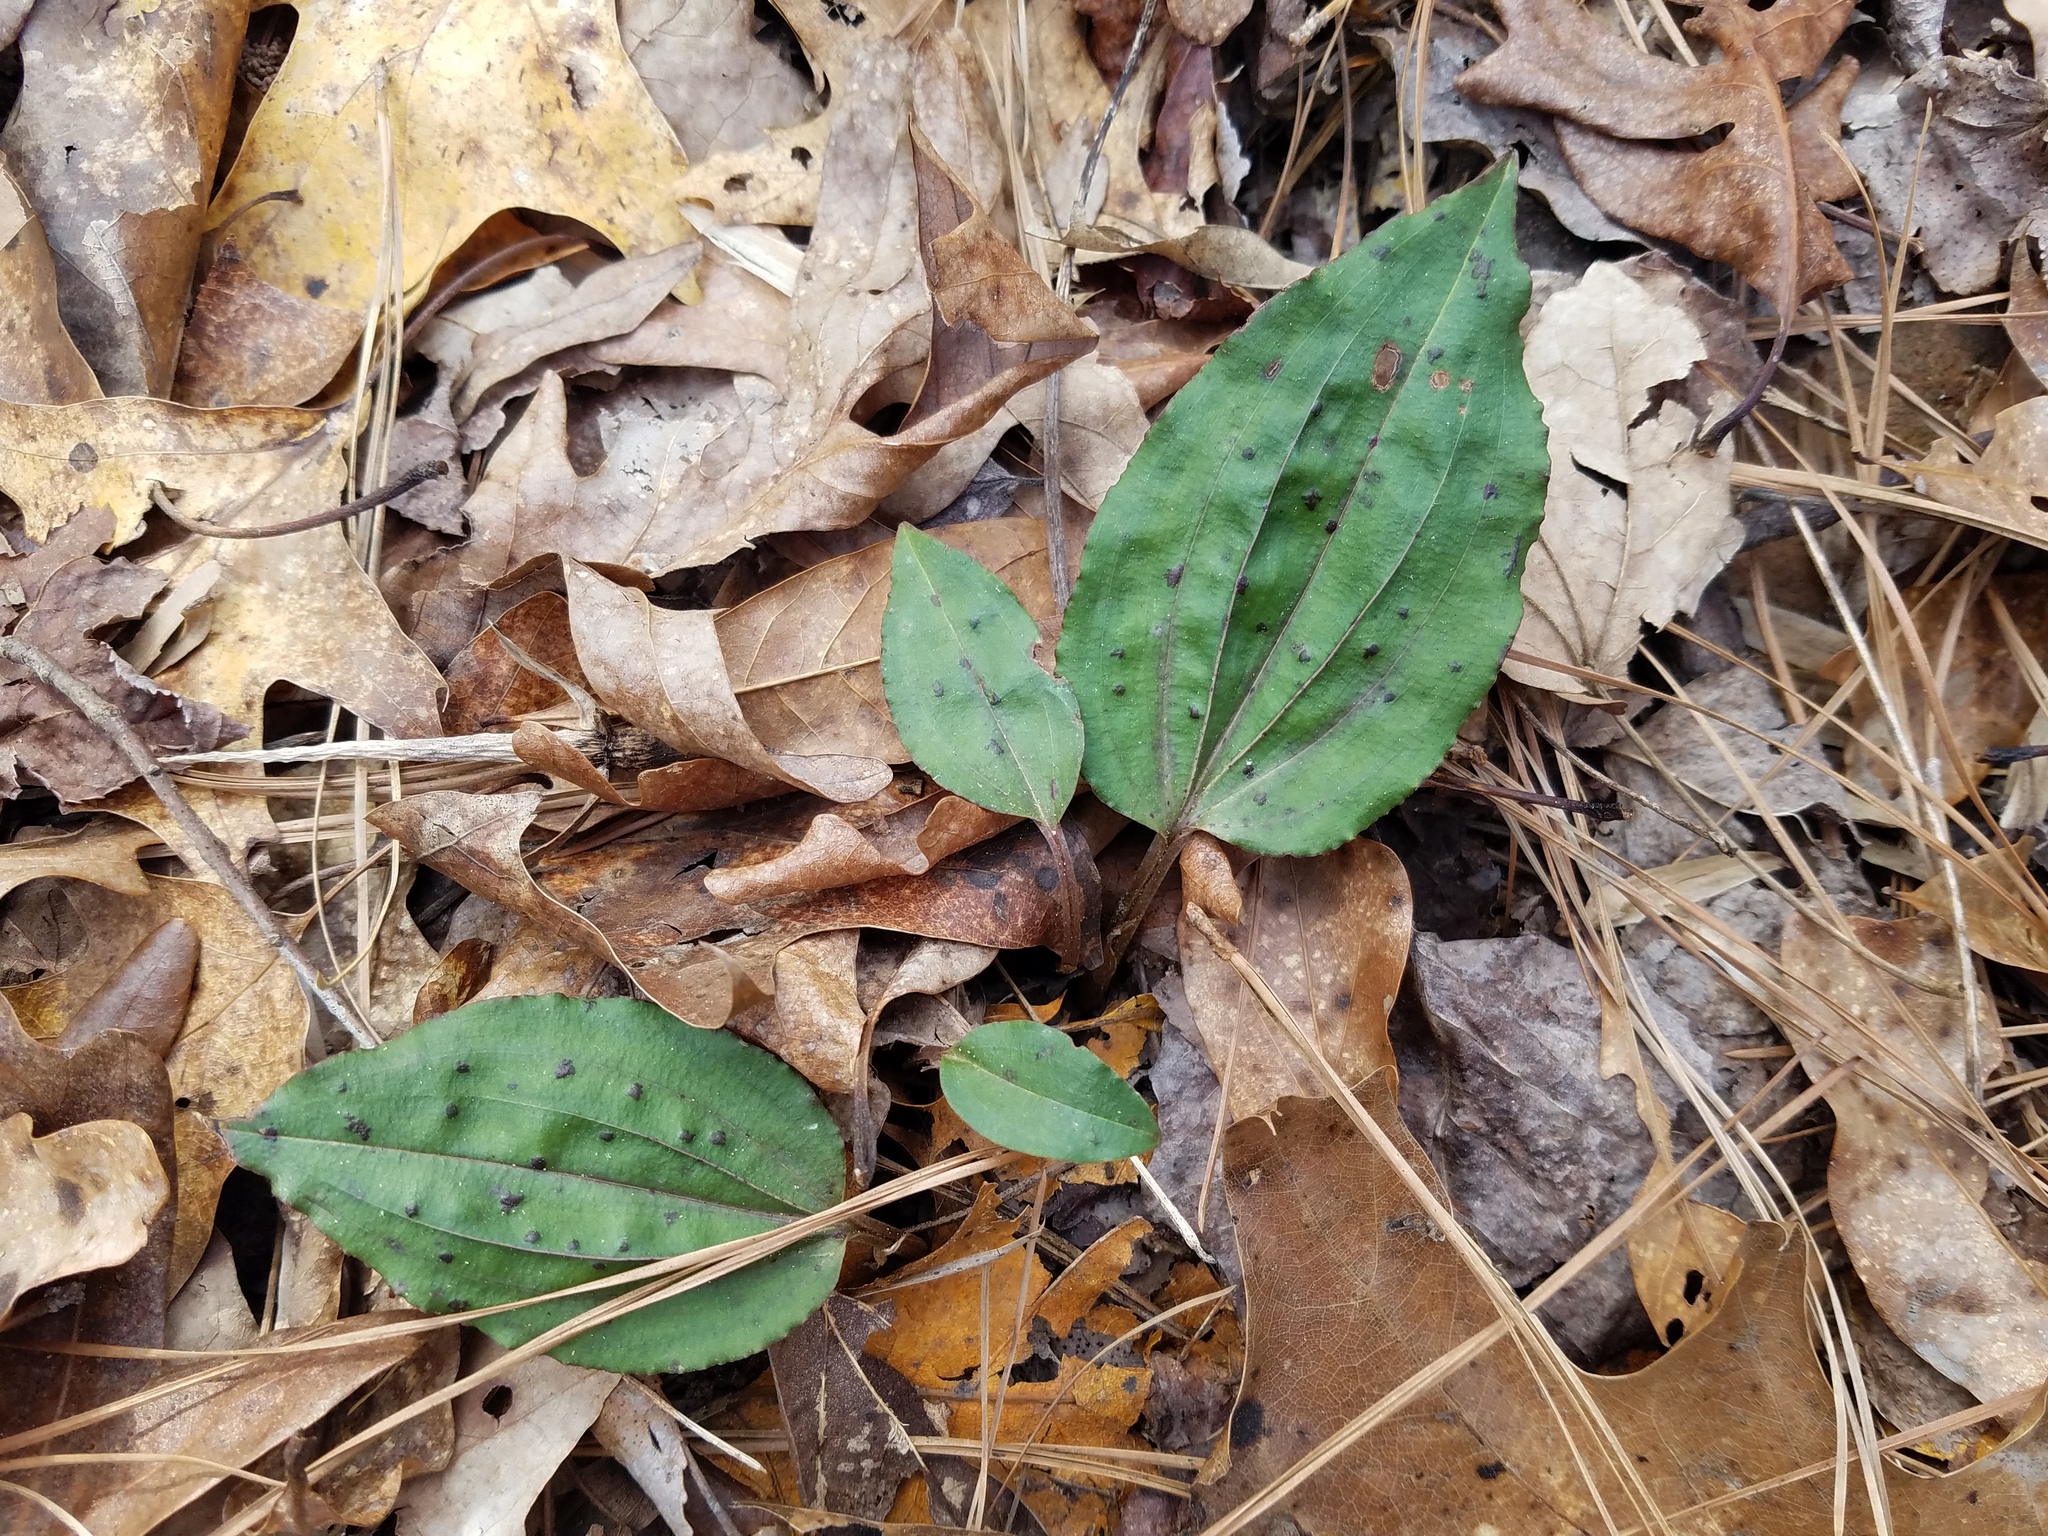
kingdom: Plantae
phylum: Tracheophyta
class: Liliopsida
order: Asparagales
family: Orchidaceae
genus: Tipularia
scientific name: Tipularia discolor
